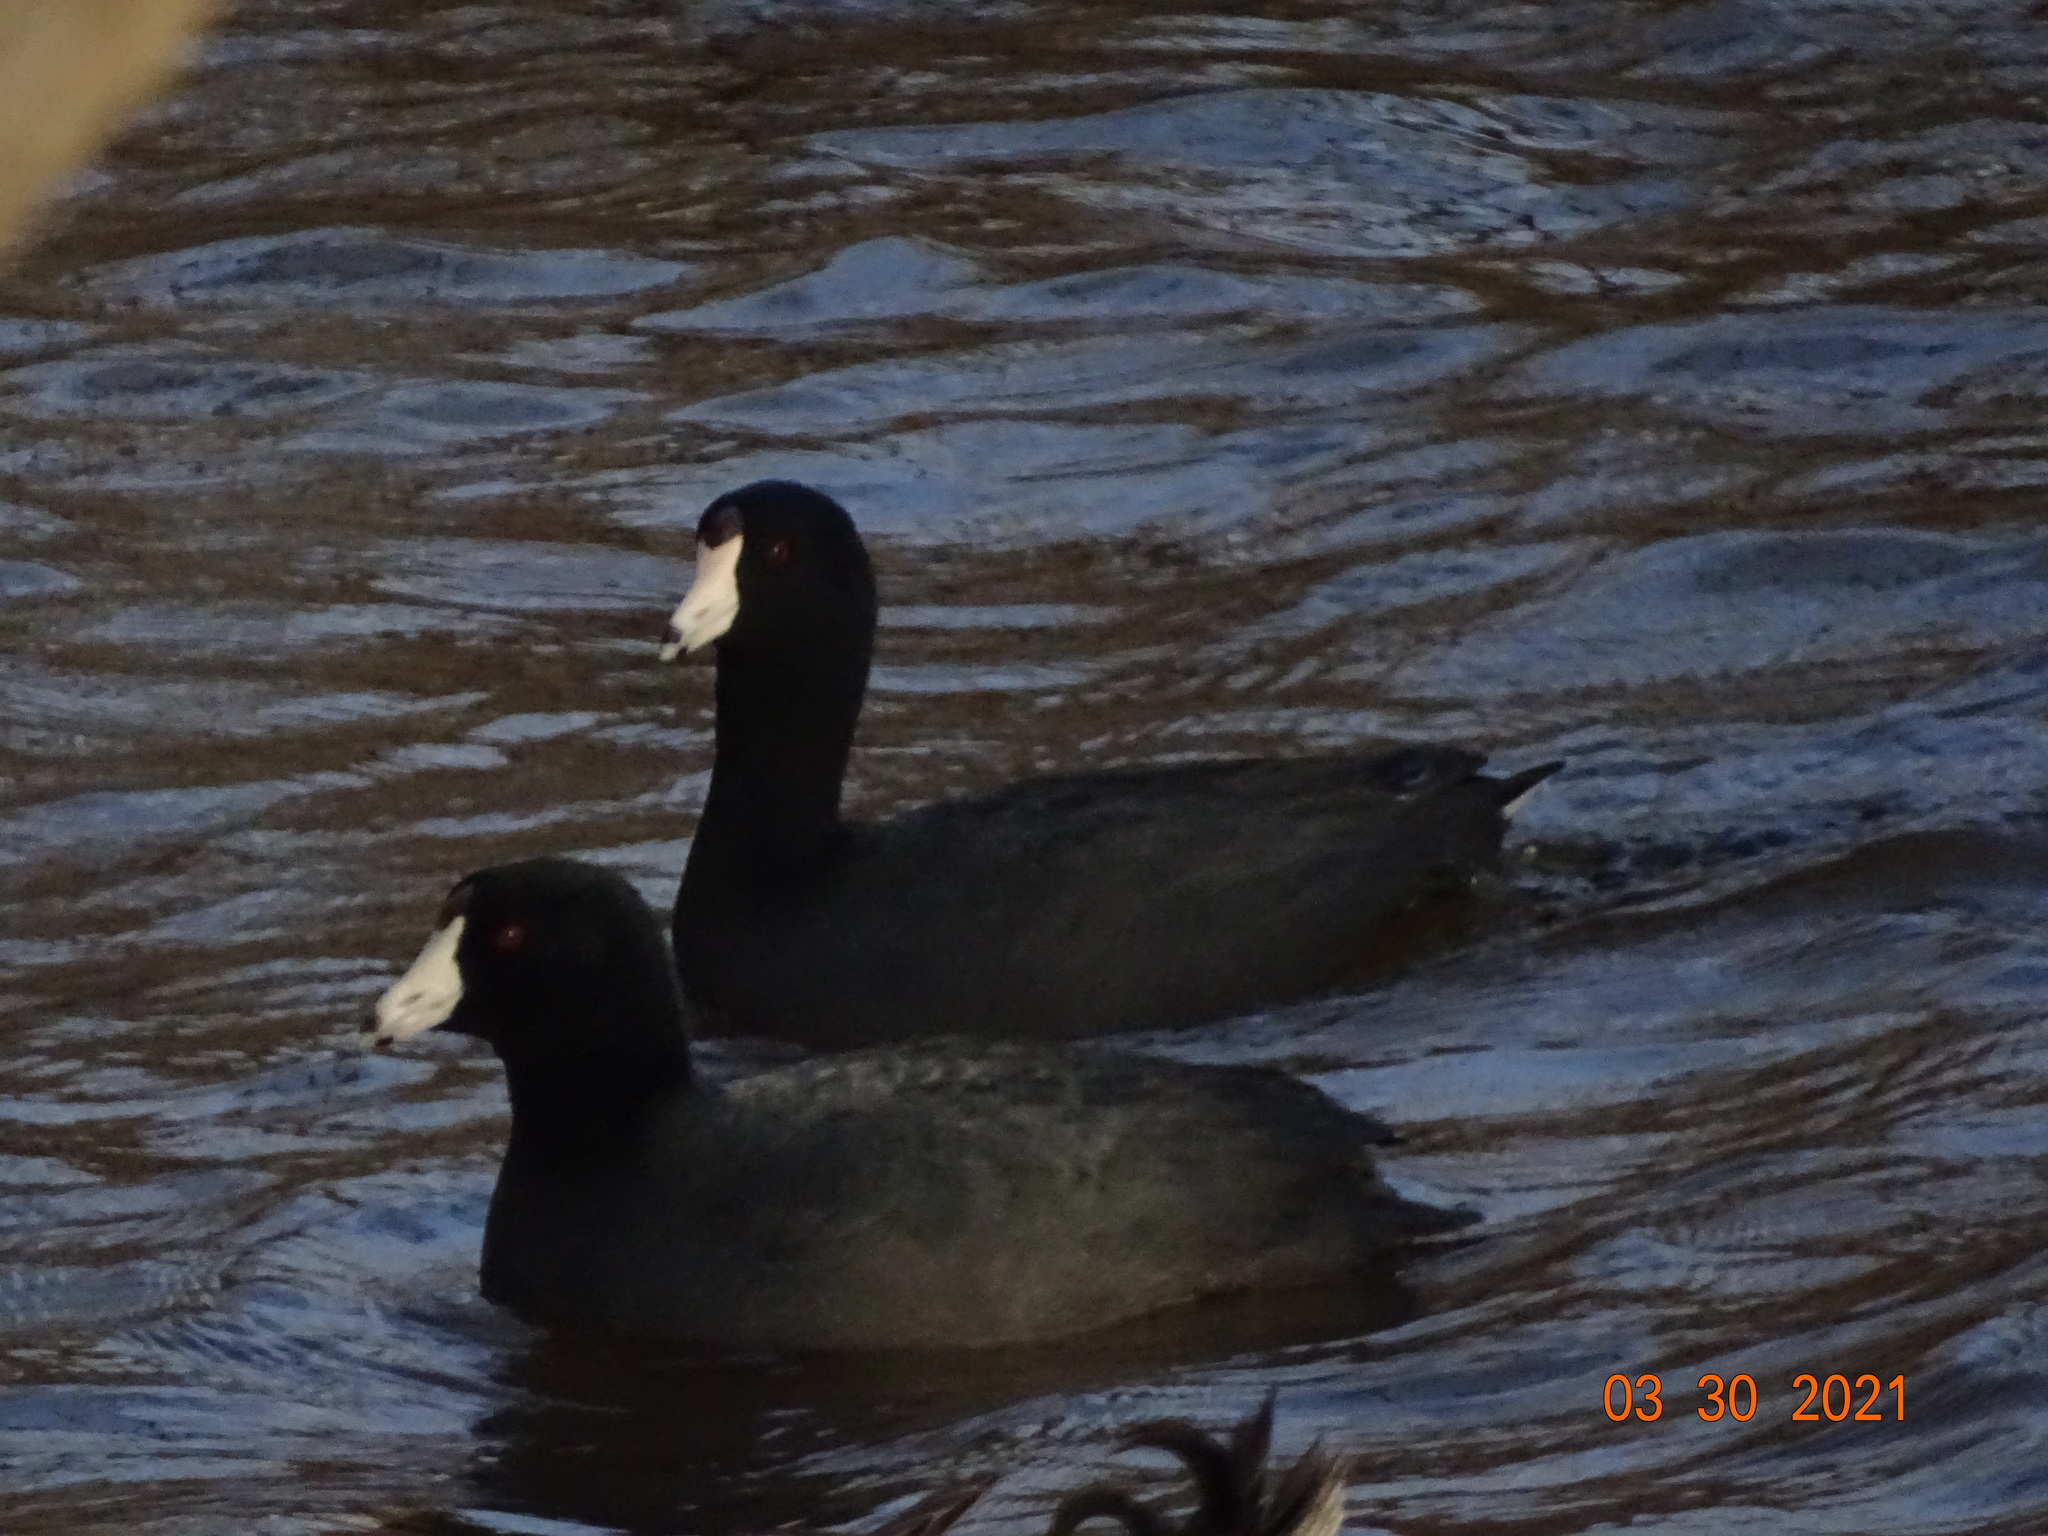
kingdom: Animalia
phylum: Chordata
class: Aves
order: Gruiformes
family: Rallidae
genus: Fulica
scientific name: Fulica americana
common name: American coot
